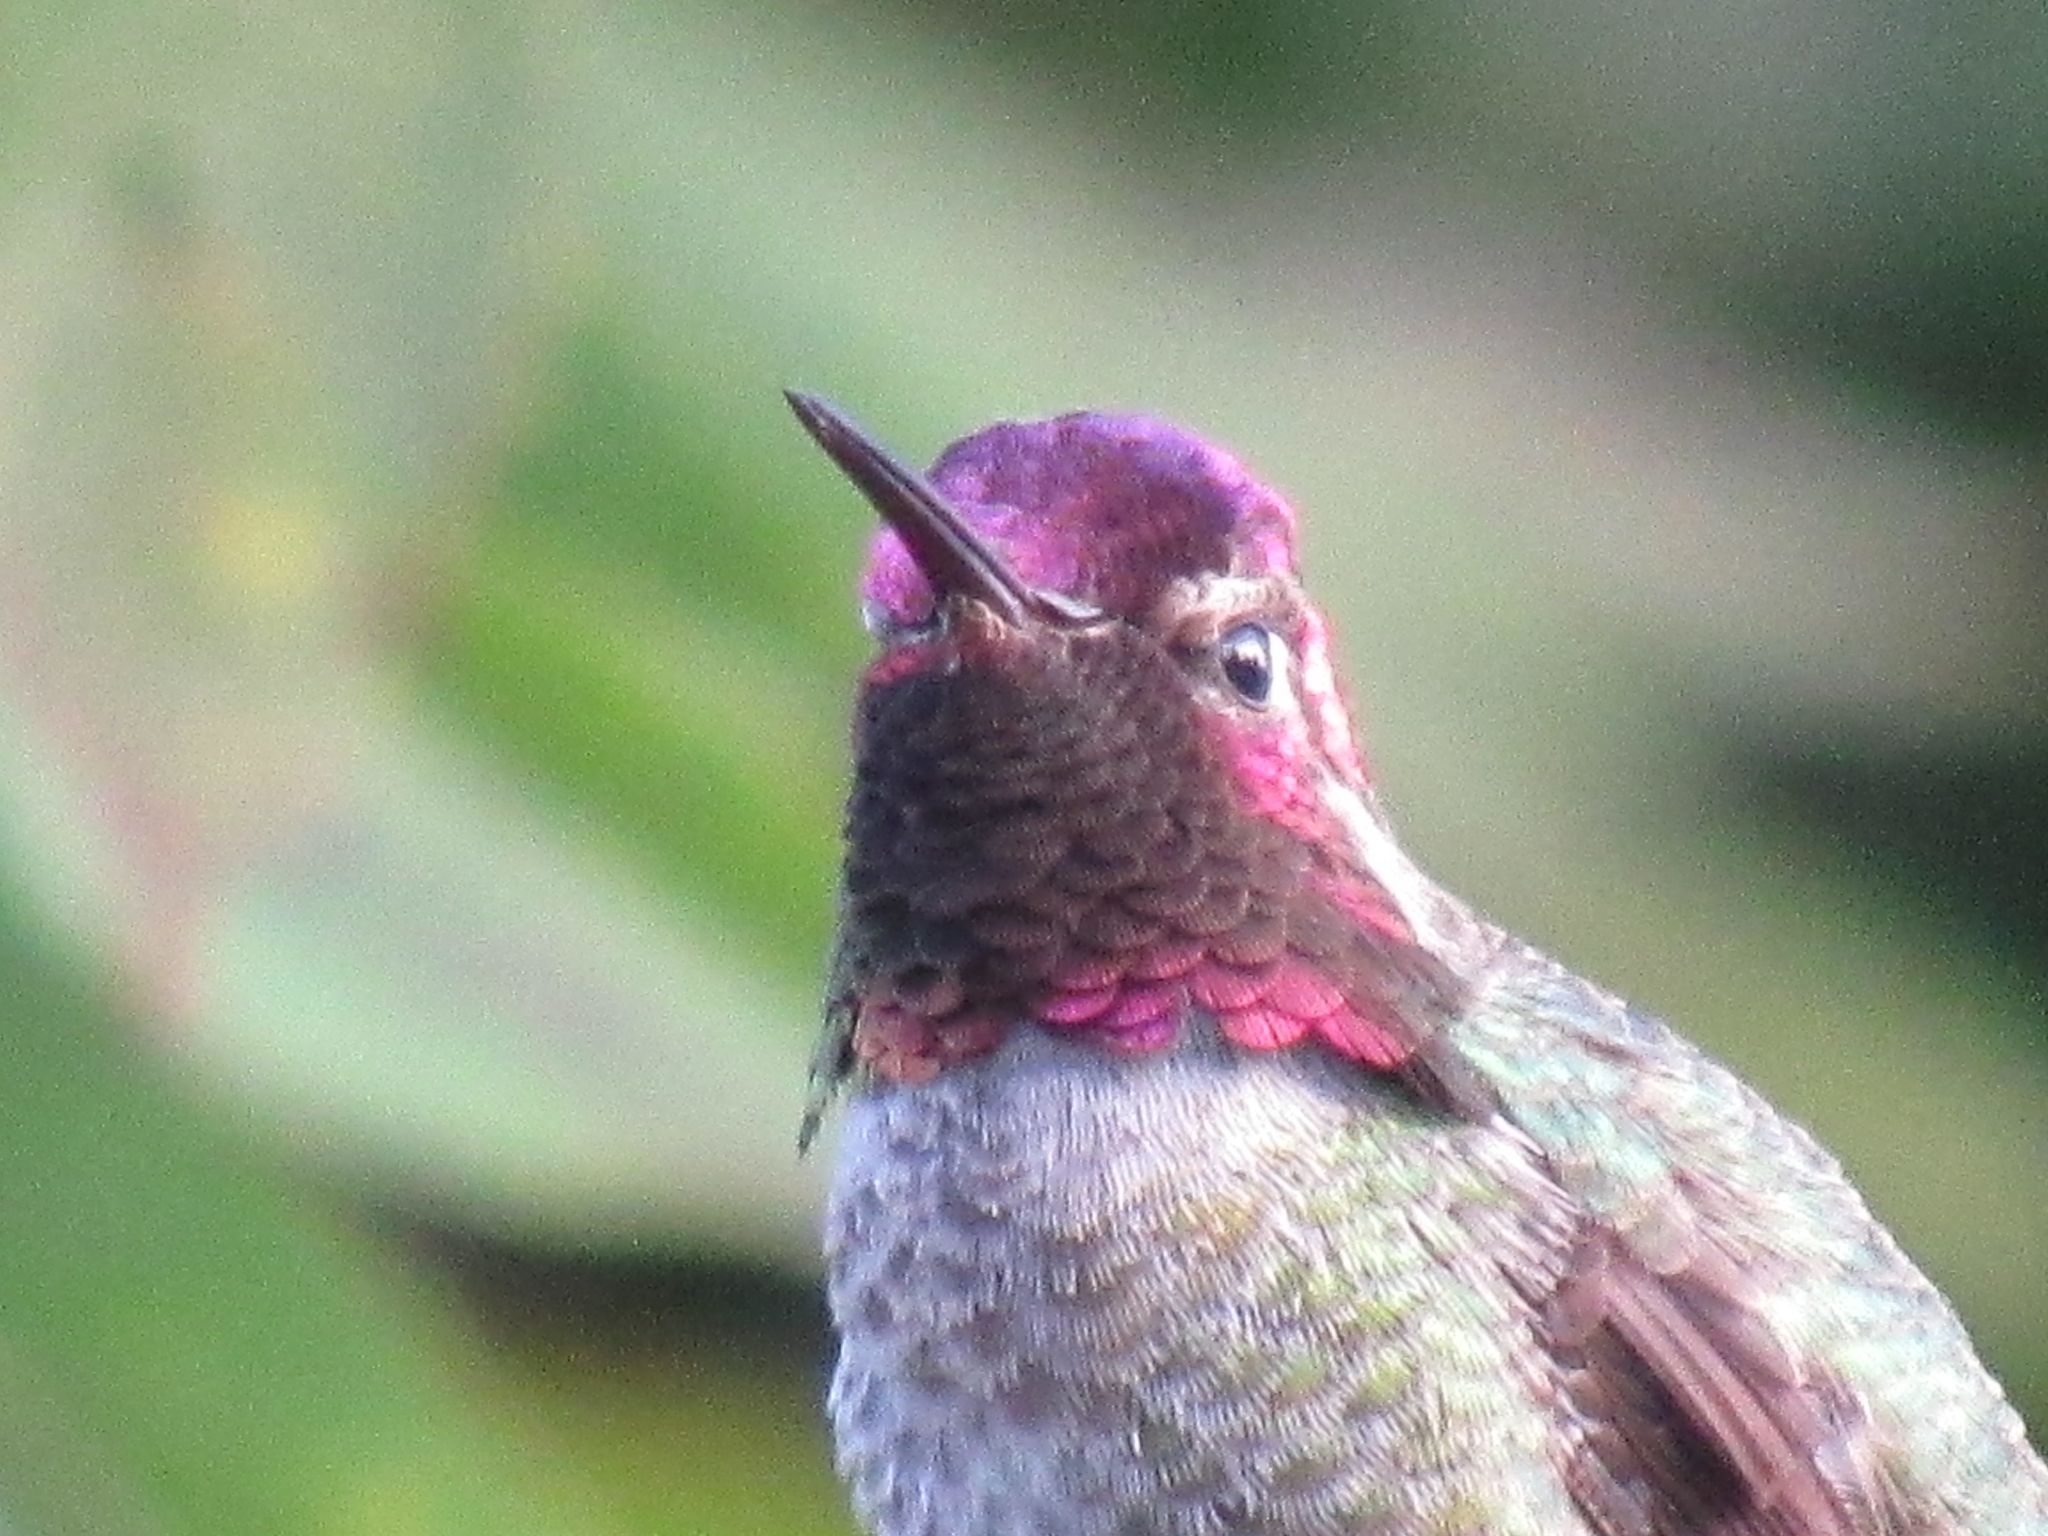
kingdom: Animalia
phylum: Chordata
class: Aves
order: Apodiformes
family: Trochilidae
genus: Calypte
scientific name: Calypte anna
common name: Anna's hummingbird
